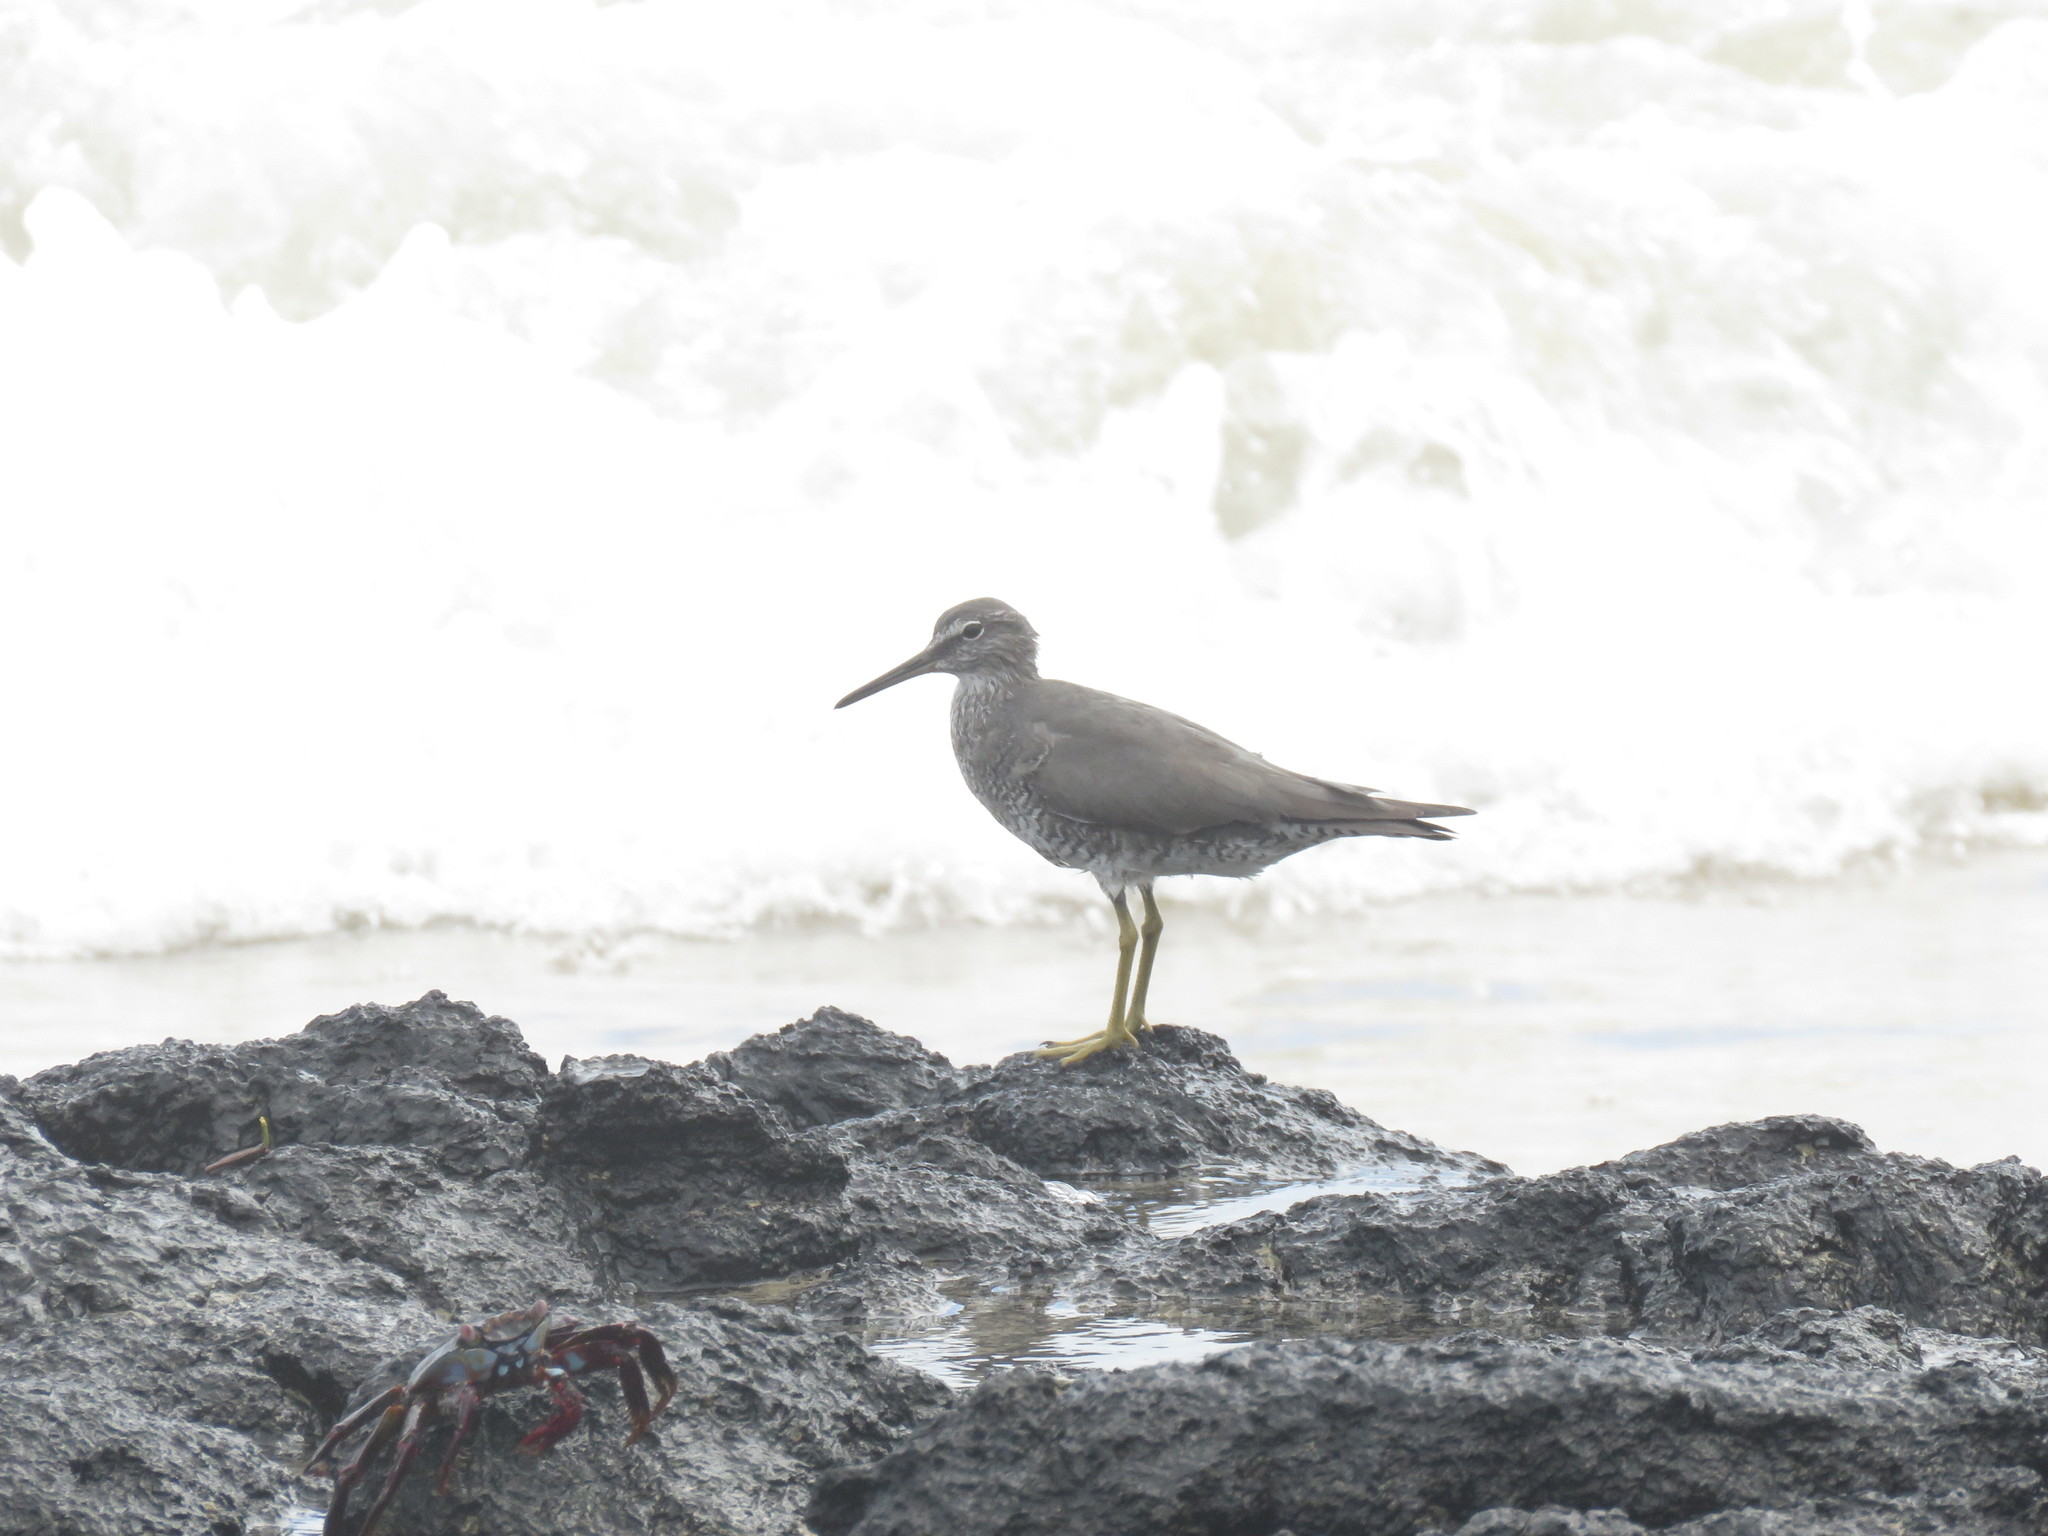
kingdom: Animalia
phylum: Chordata
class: Aves
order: Charadriiformes
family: Scolopacidae
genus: Tringa
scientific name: Tringa incana
